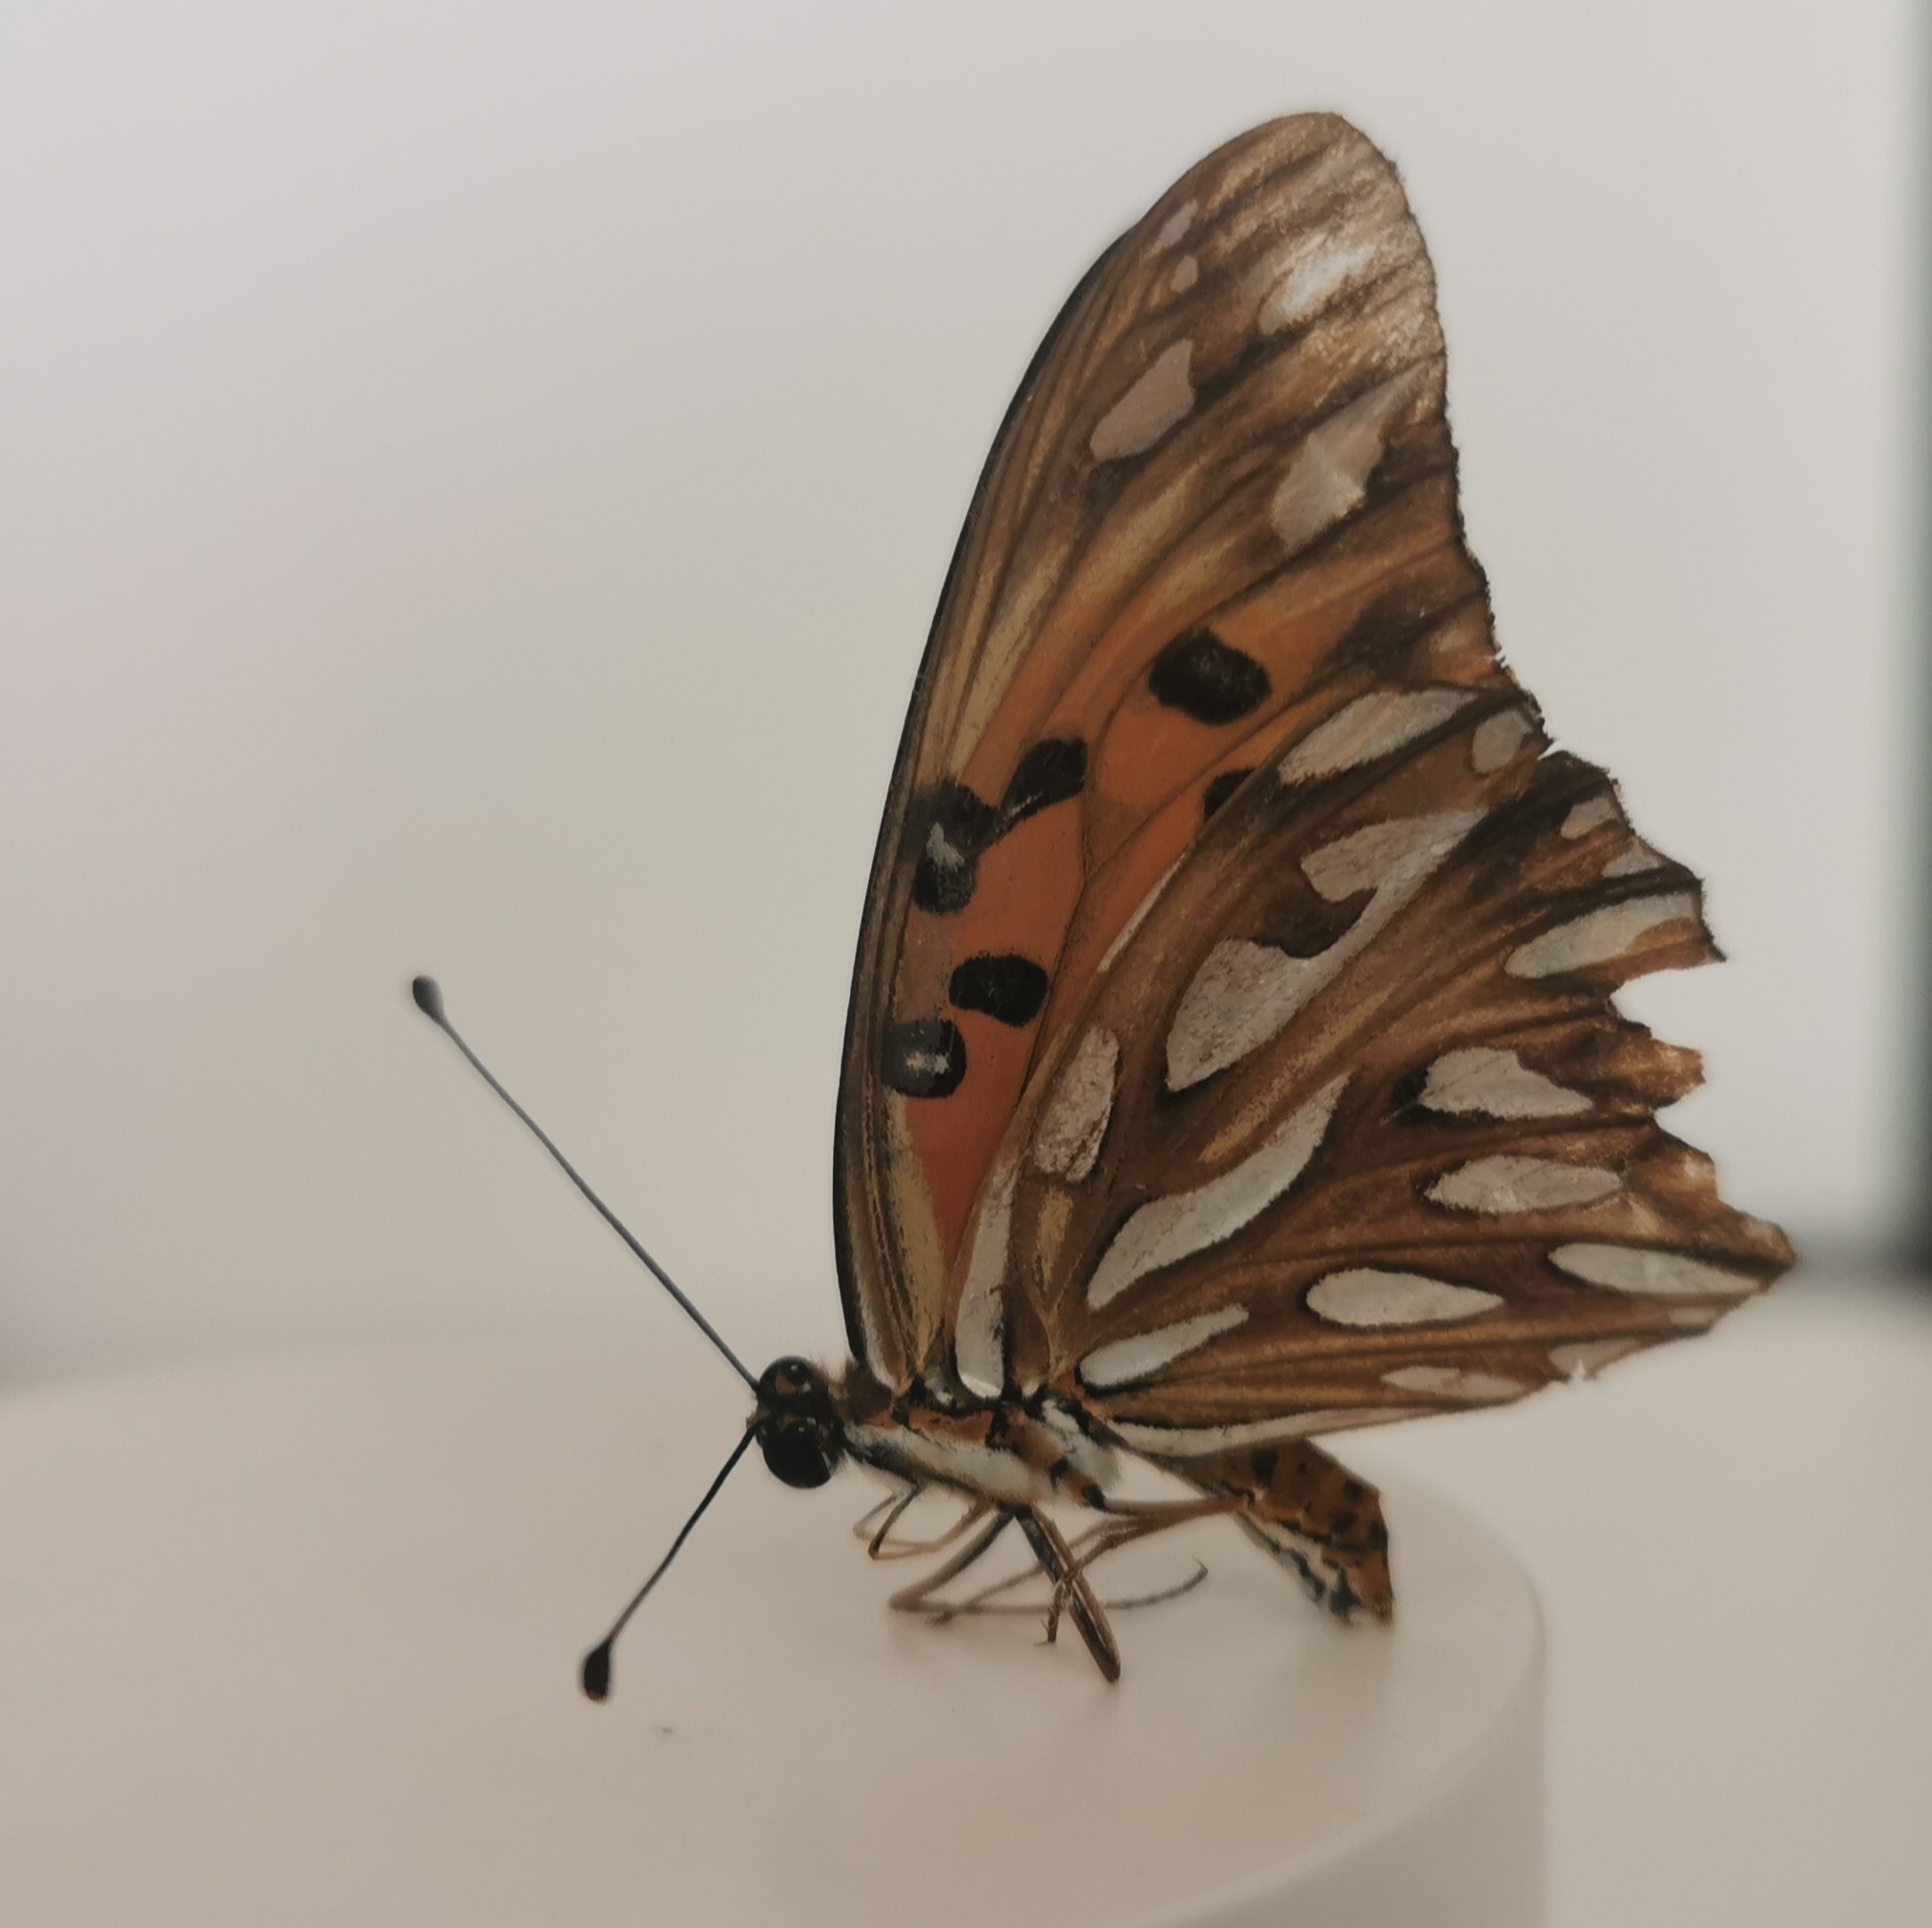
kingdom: Animalia
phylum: Arthropoda
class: Insecta
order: Lepidoptera
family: Nymphalidae
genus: Dione
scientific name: Dione vanillae
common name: Gulf fritillary
